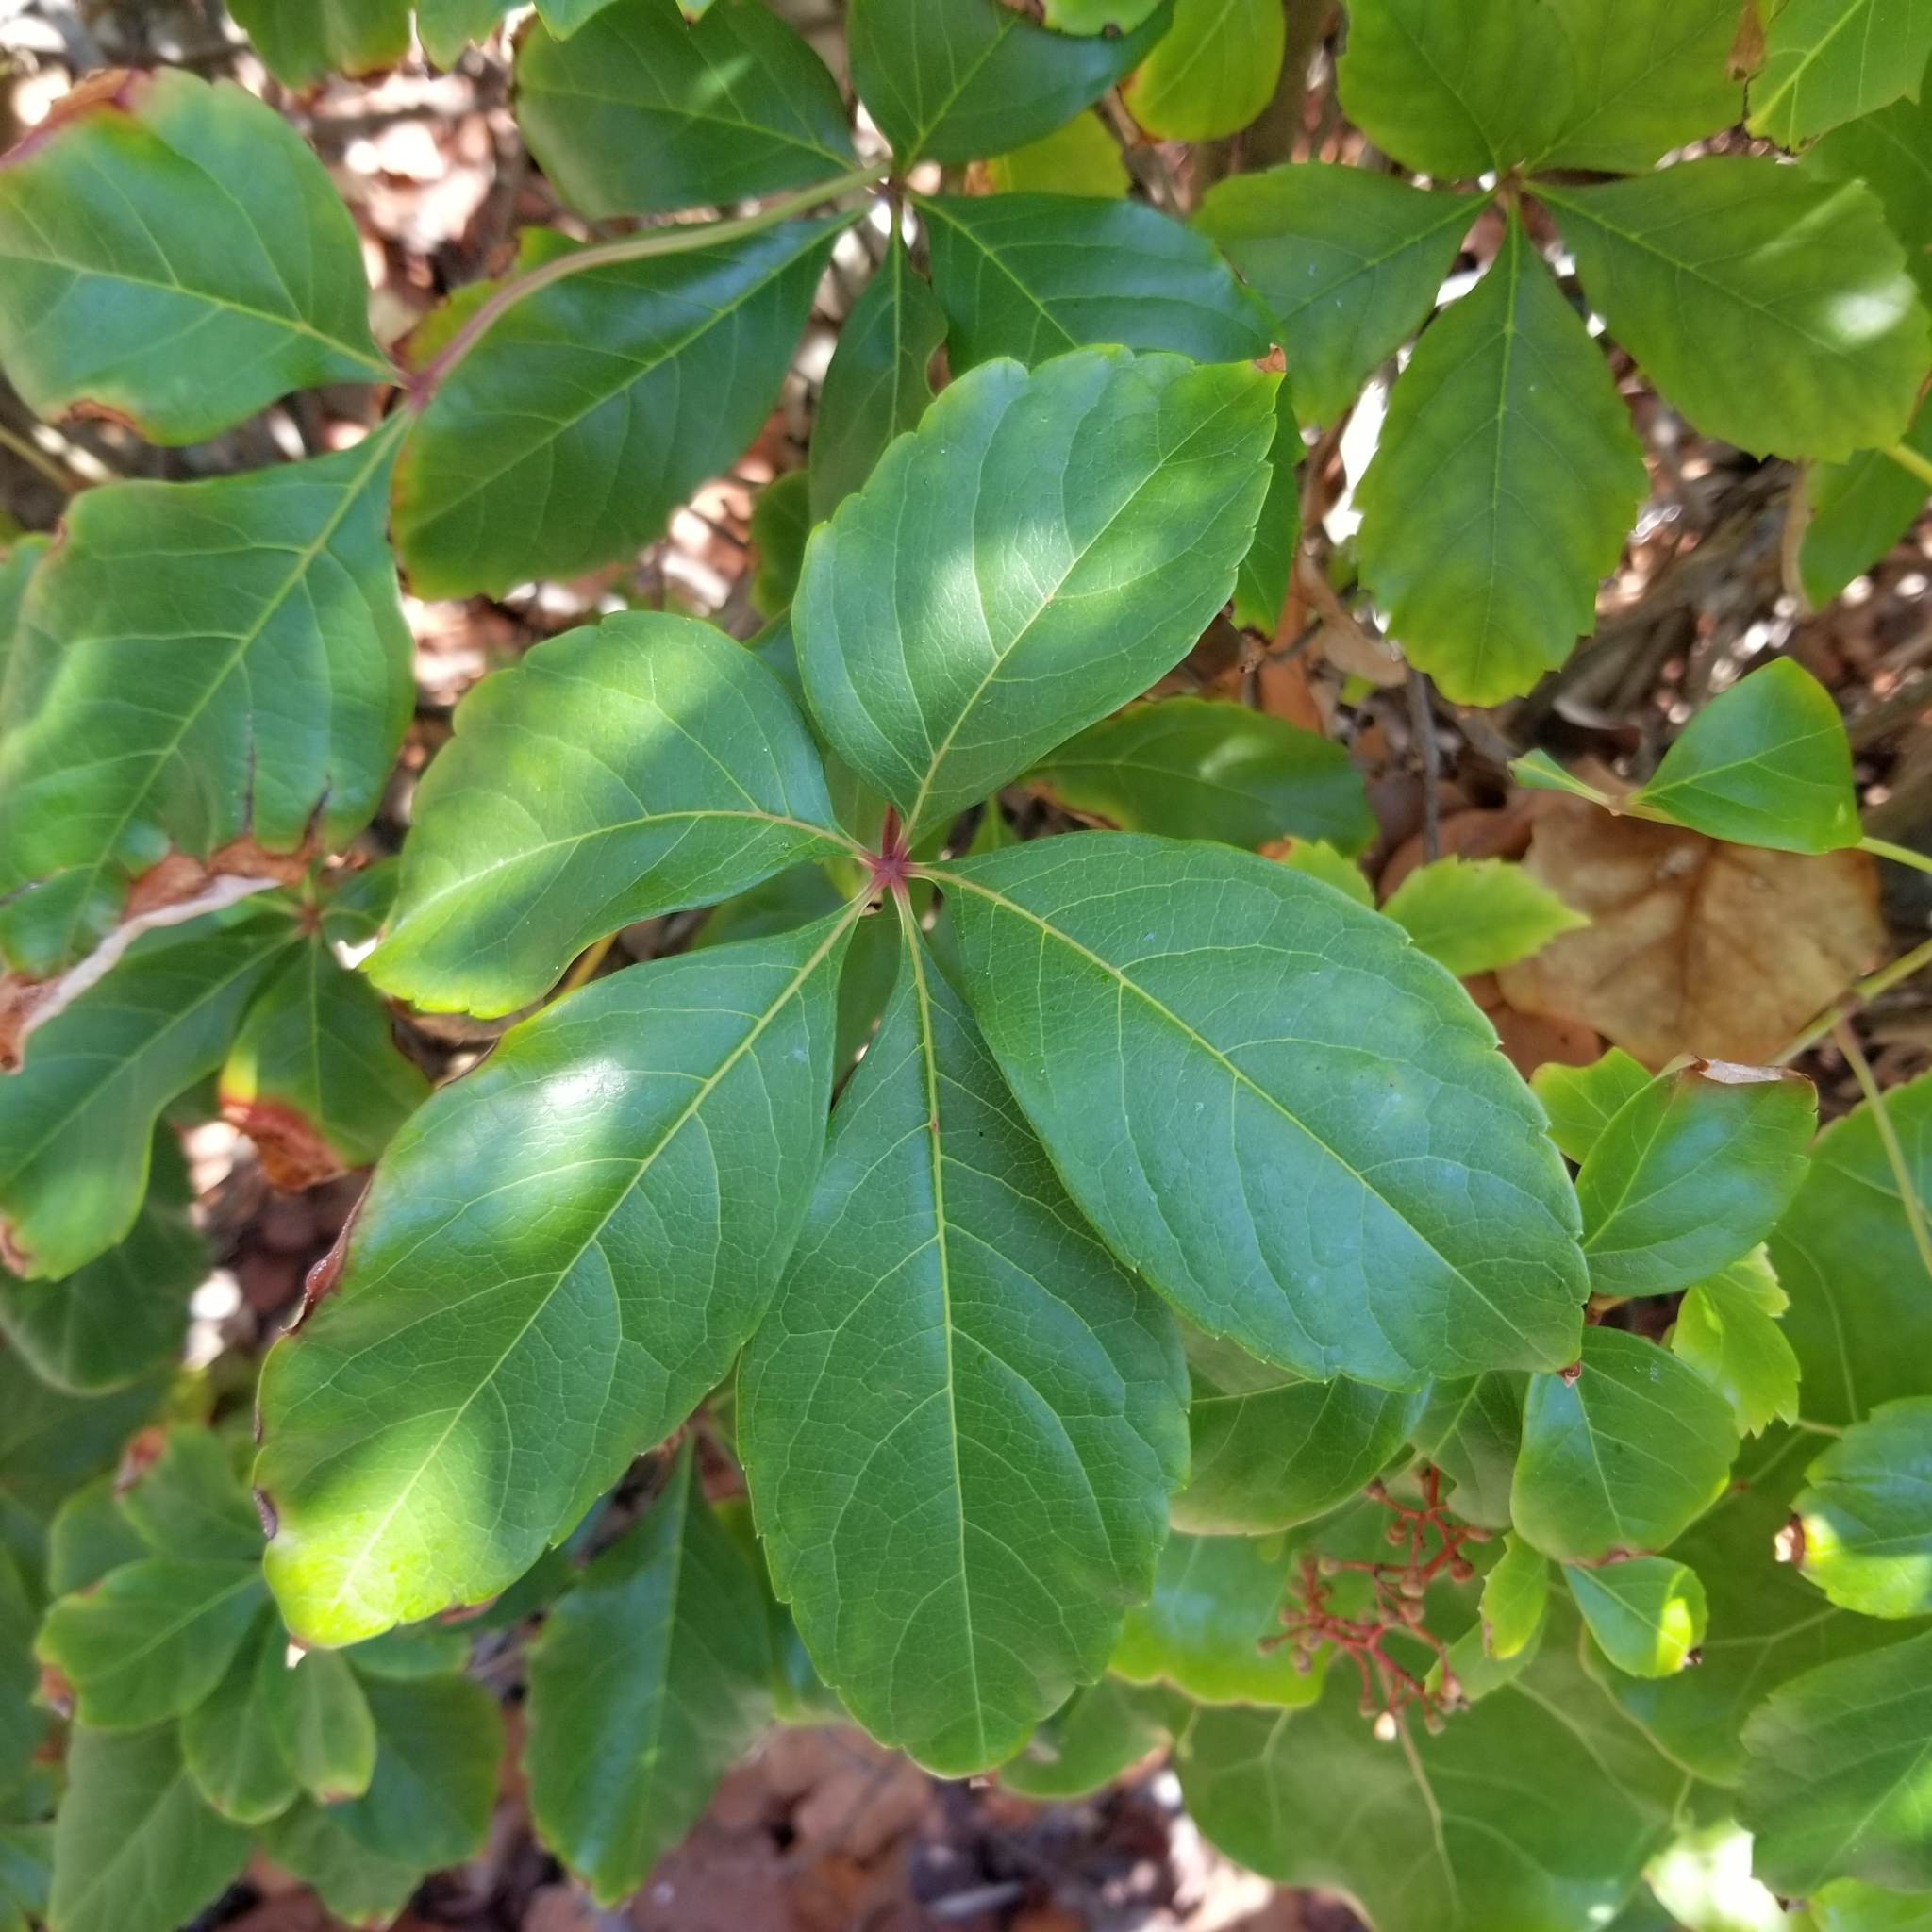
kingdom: Plantae
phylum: Tracheophyta
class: Magnoliopsida
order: Vitales
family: Vitaceae
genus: Parthenocissus
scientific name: Parthenocissus quinquefolia
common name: Virginia-creeper
